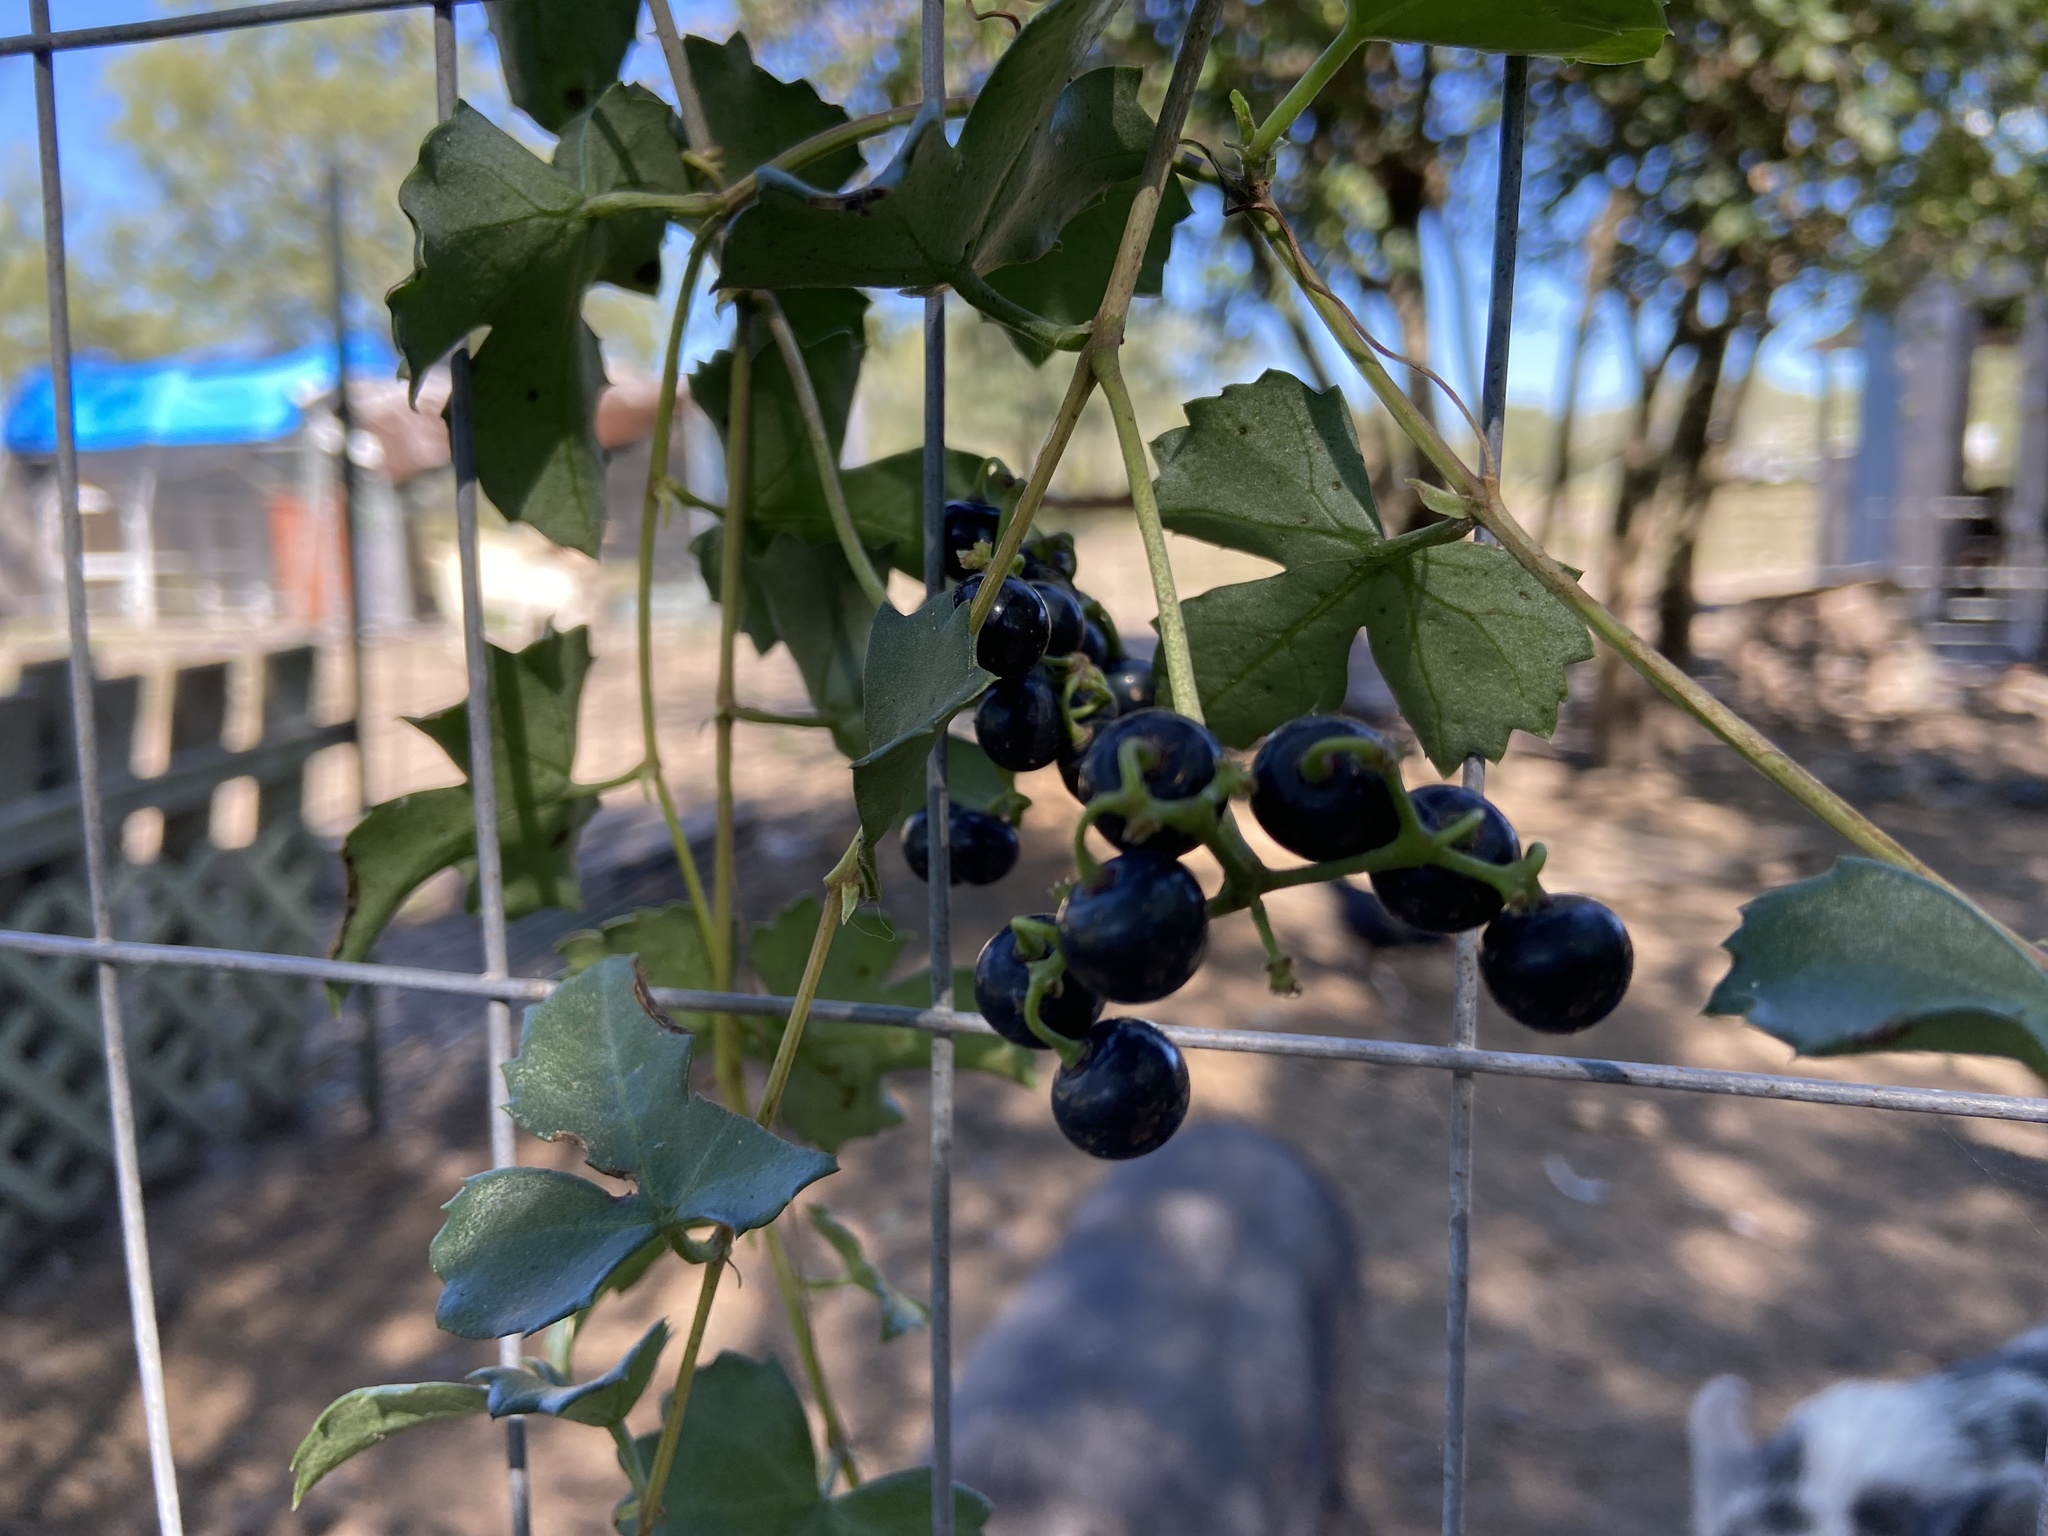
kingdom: Plantae
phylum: Tracheophyta
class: Magnoliopsida
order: Vitales
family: Vitaceae
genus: Cissus
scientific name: Cissus trifoliata
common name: Vine-sorrel
